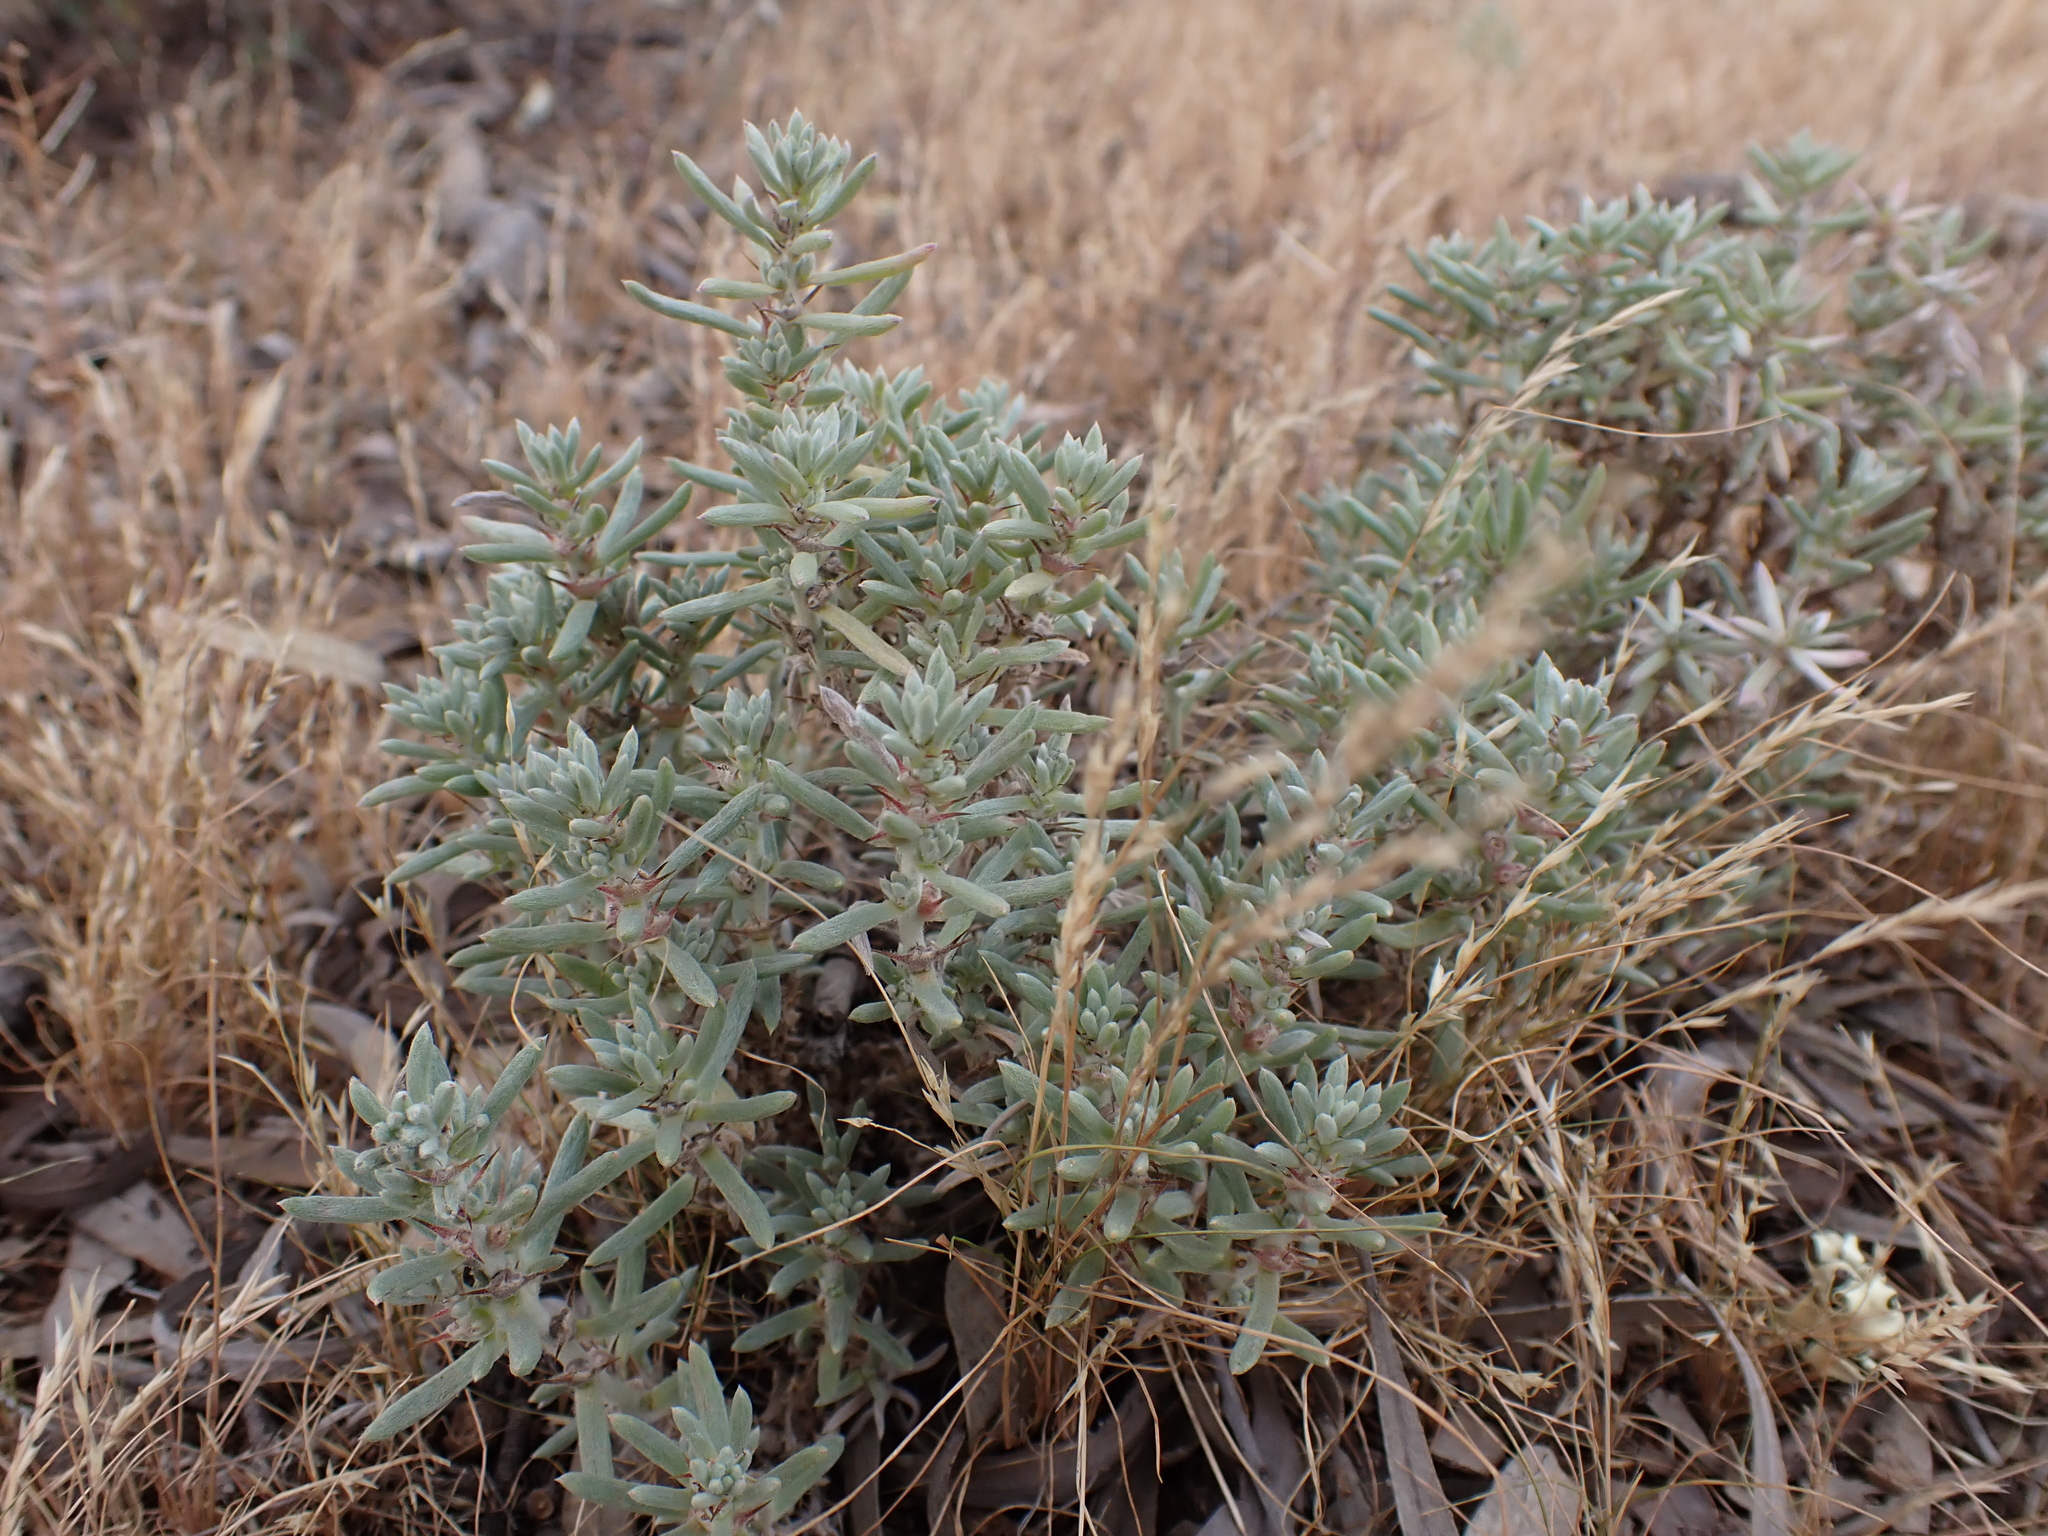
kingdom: Plantae
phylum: Tracheophyta
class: Magnoliopsida
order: Caryophyllales
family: Amaranthaceae
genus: Sclerolaena
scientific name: Sclerolaena diacantha
